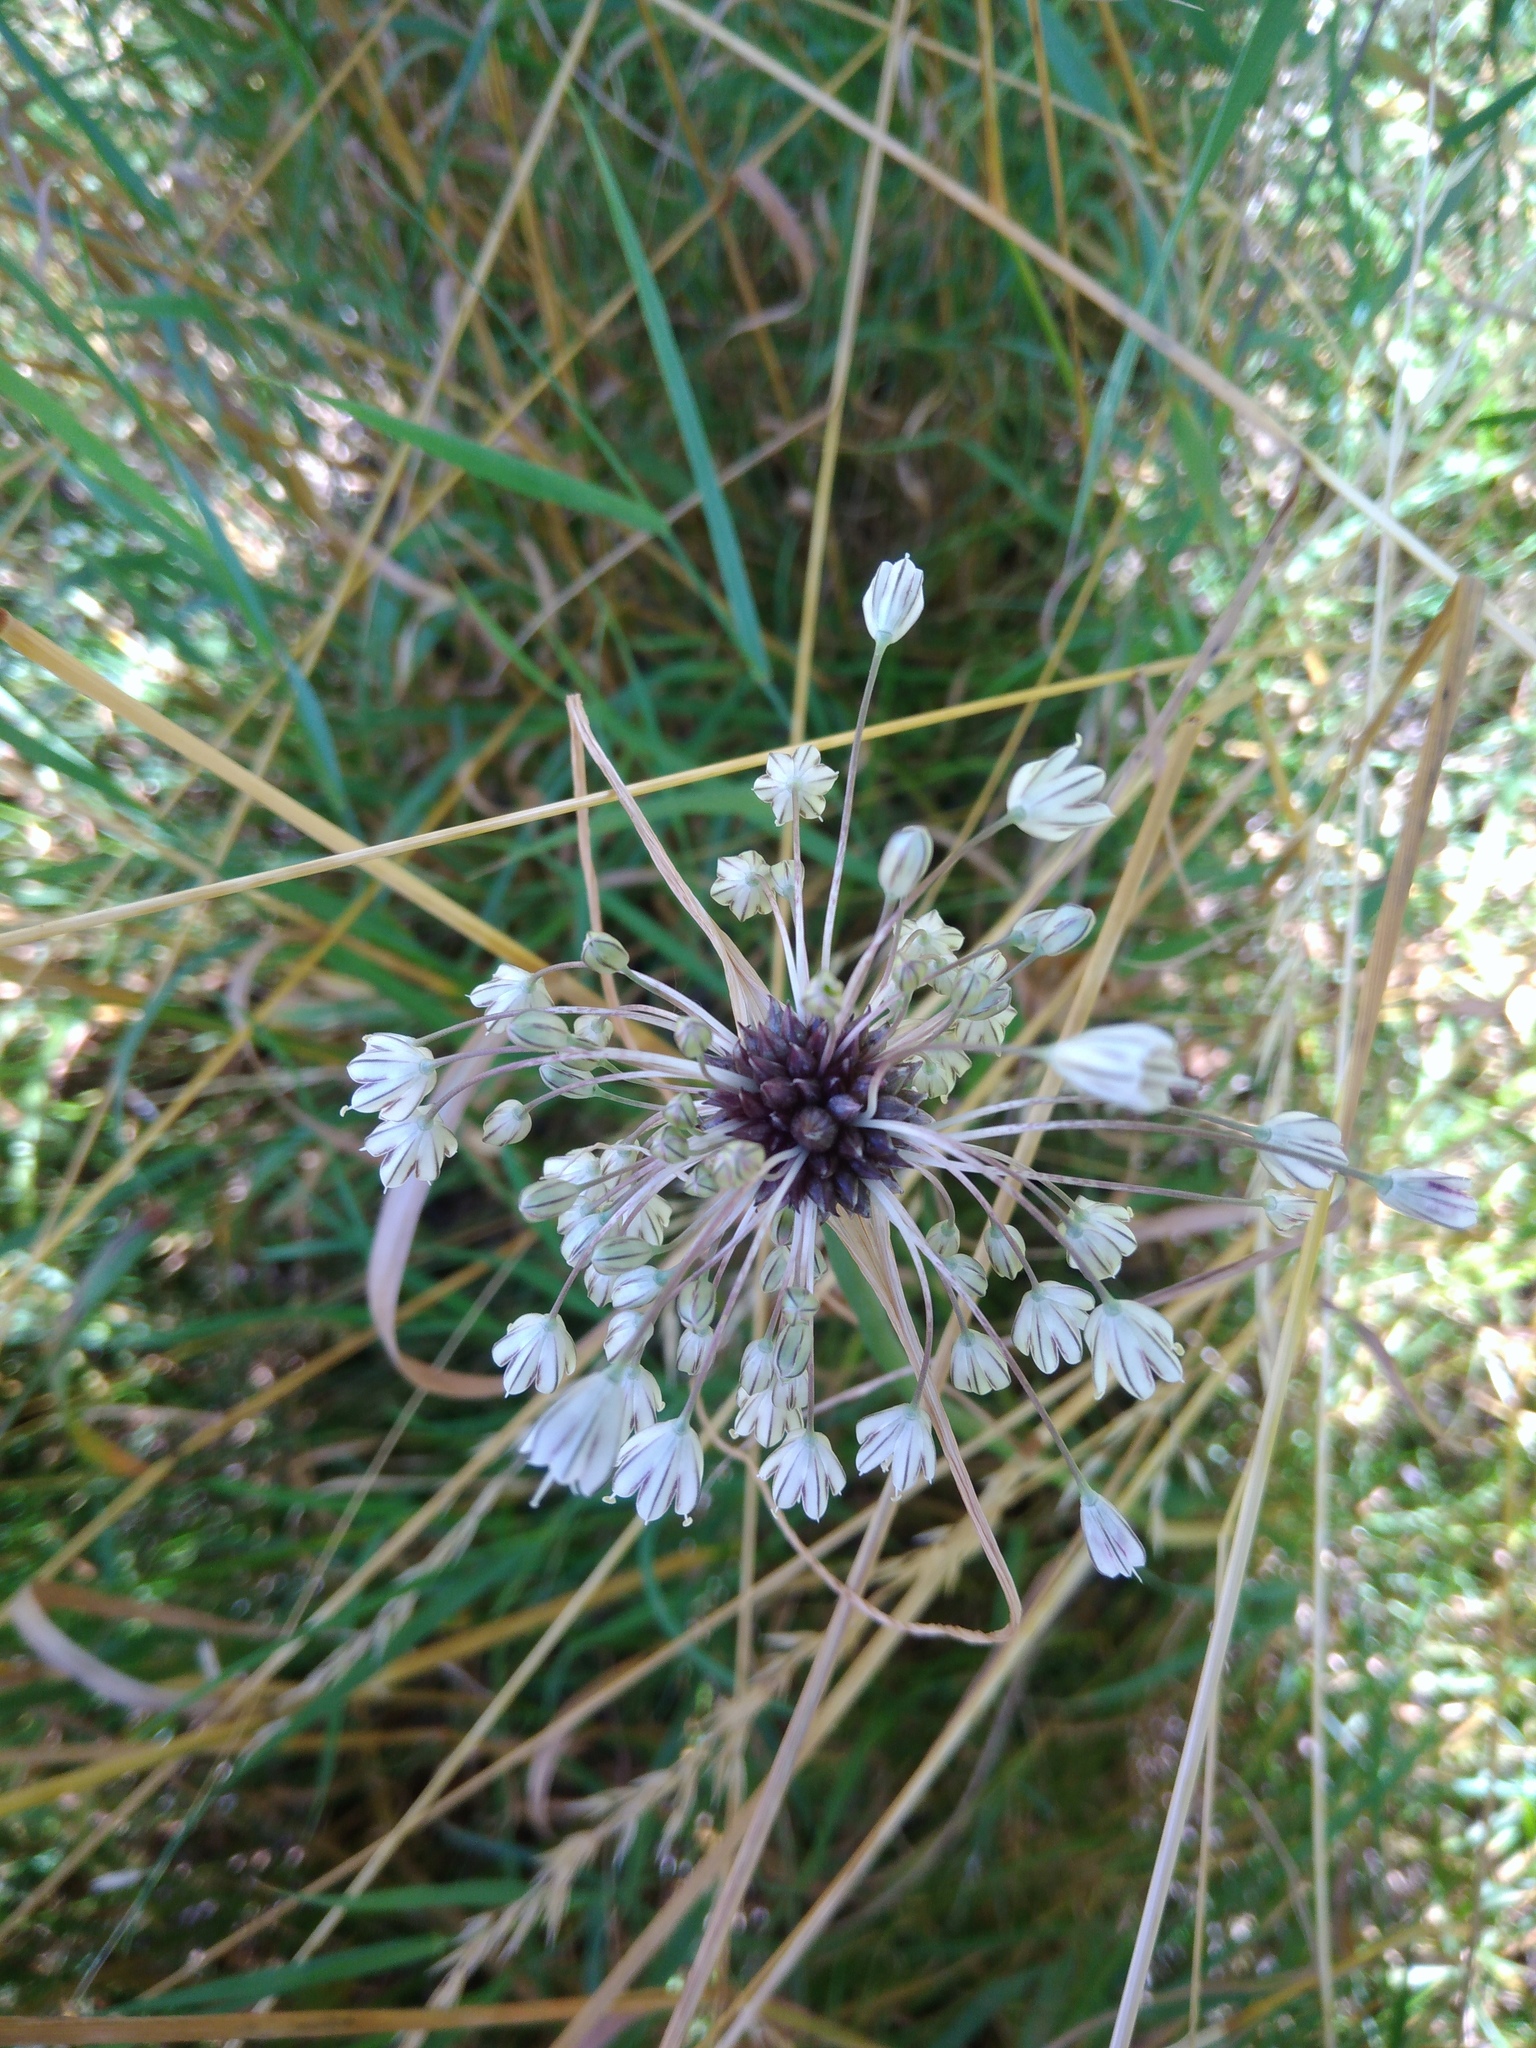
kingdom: Plantae
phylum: Tracheophyta
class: Liliopsida
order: Asparagales
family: Amaryllidaceae
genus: Allium
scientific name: Allium oleraceum
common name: Field garlic
